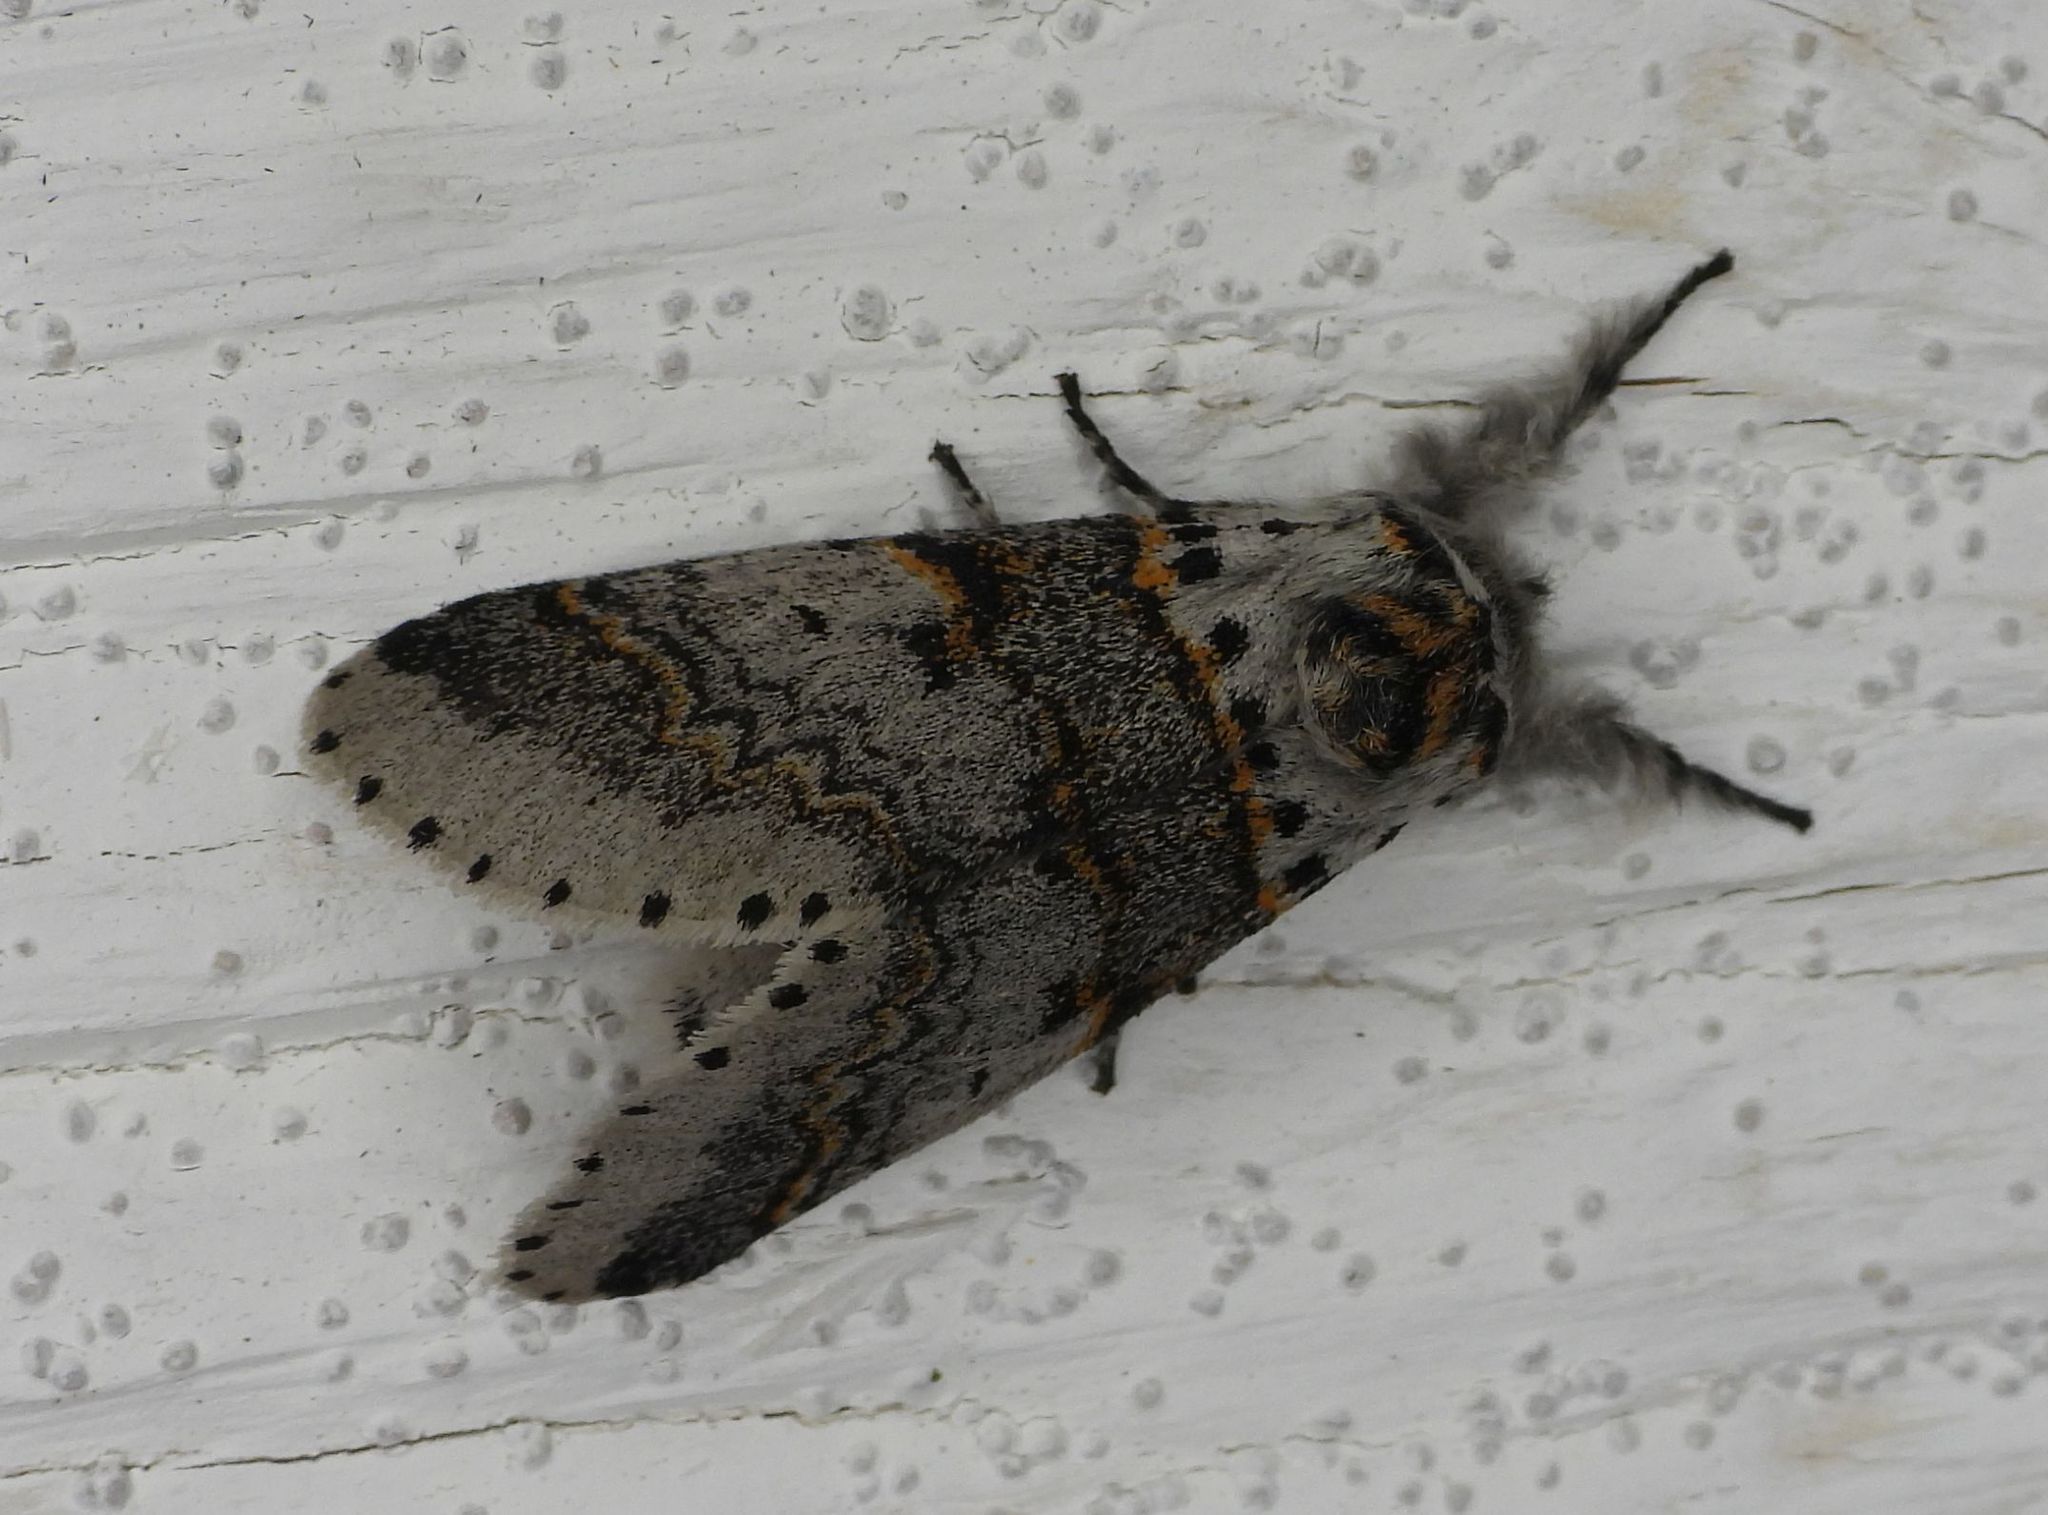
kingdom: Animalia
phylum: Arthropoda
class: Insecta
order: Lepidoptera
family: Notodontidae
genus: Furcula
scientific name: Furcula occidentalis
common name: Western furcula moth
